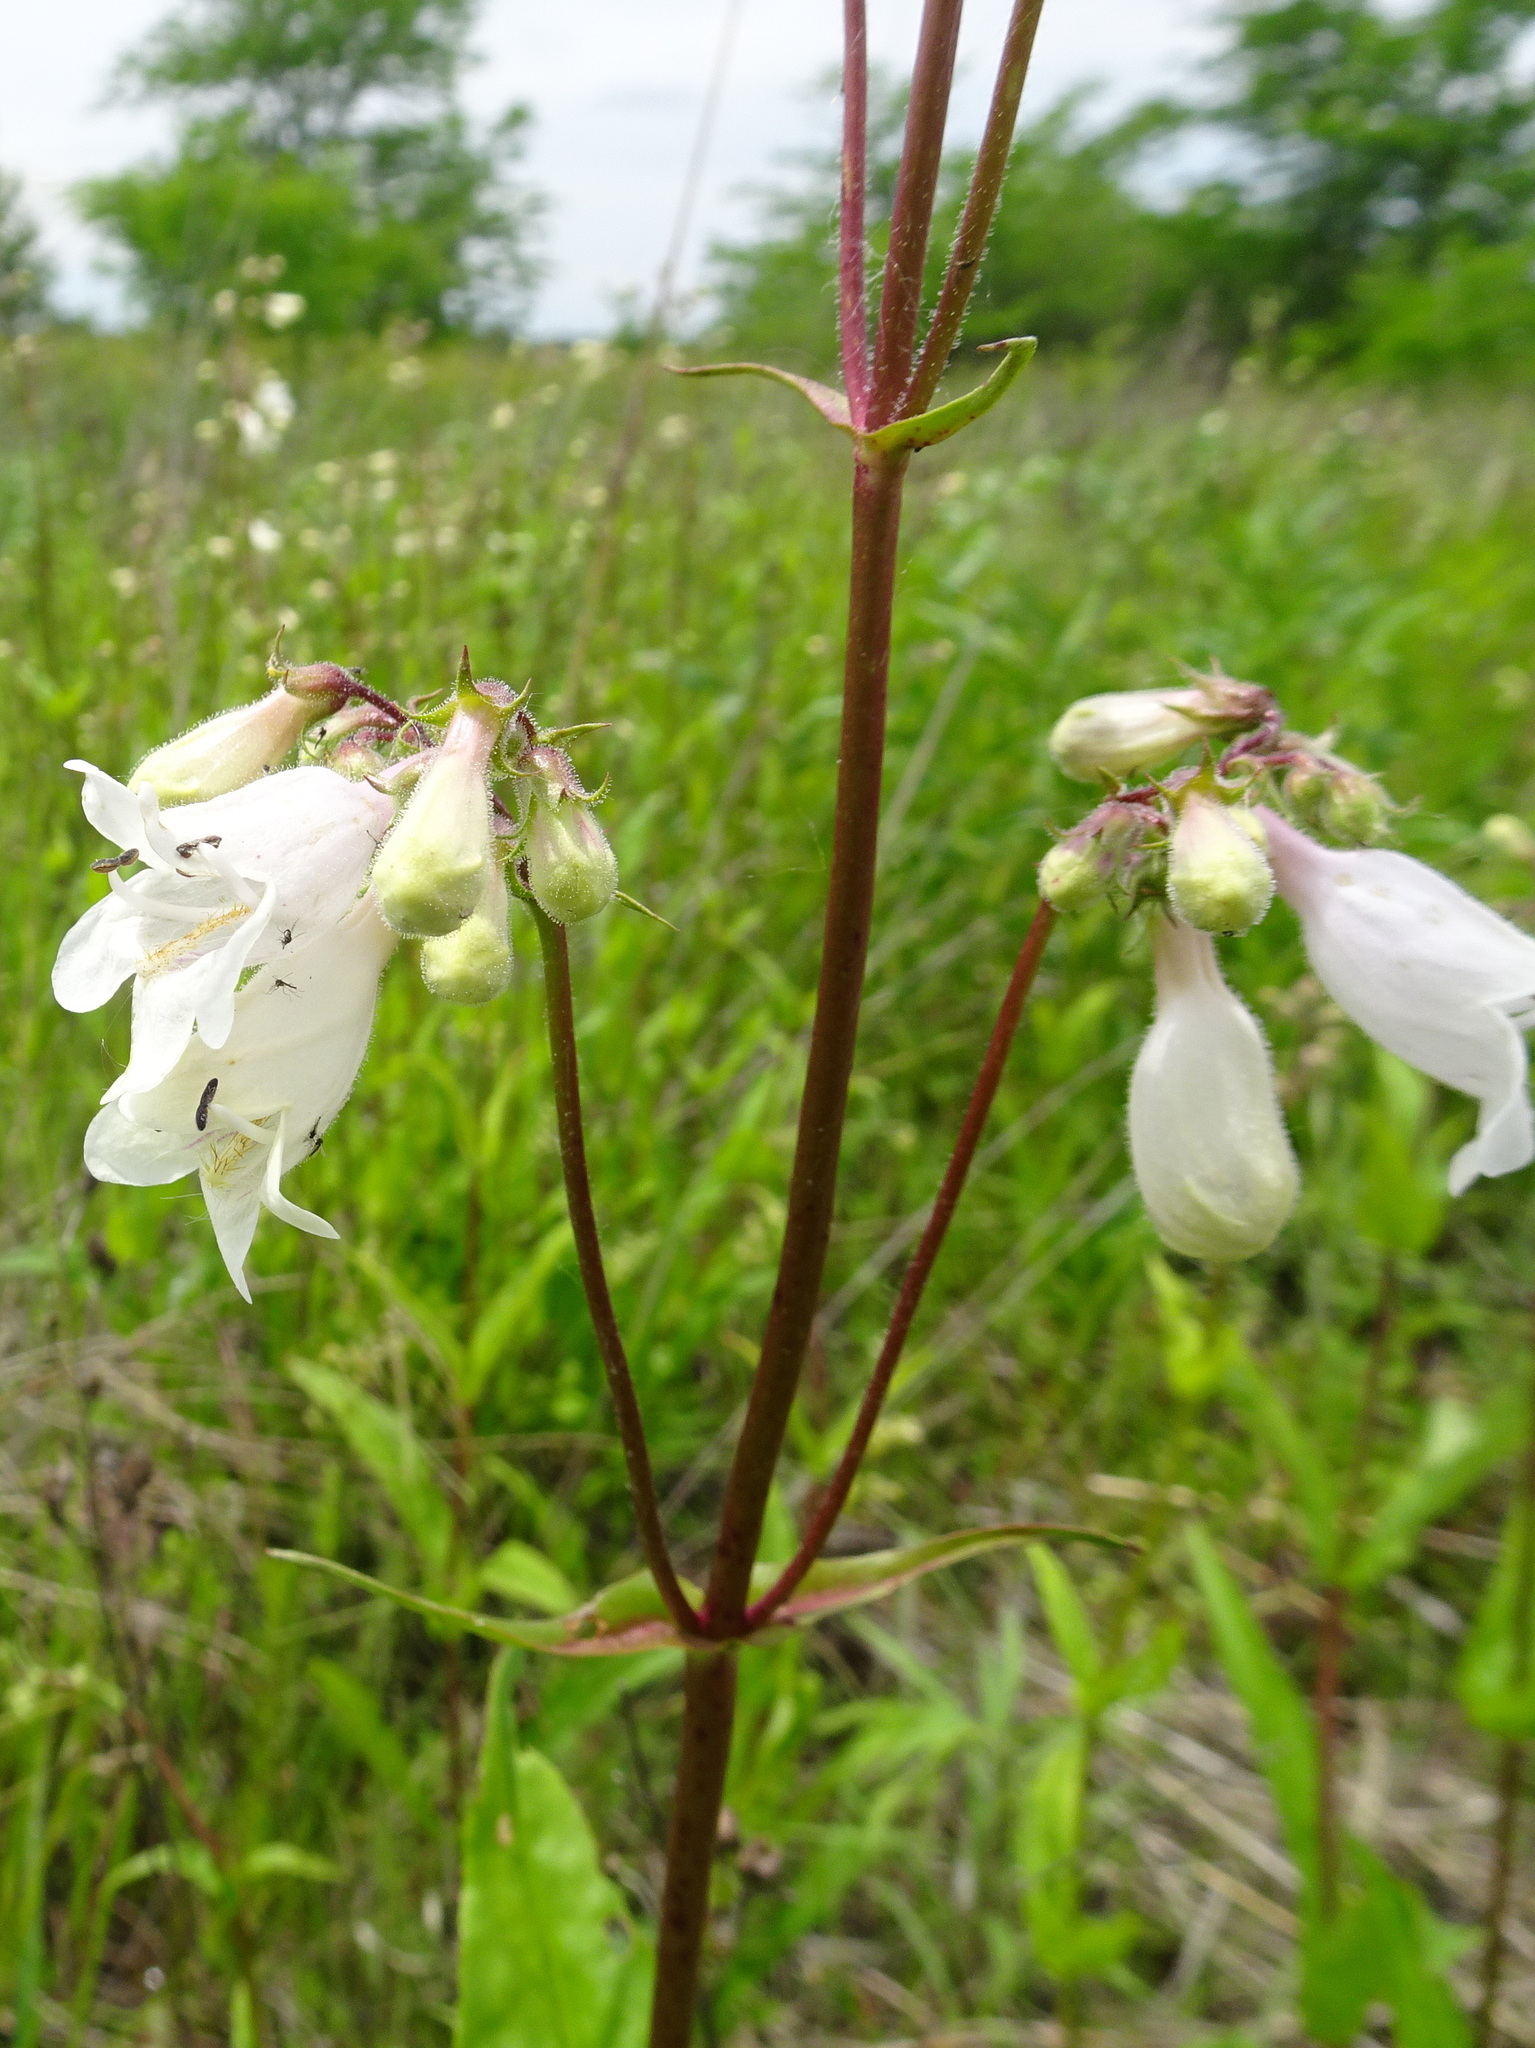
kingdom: Plantae
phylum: Tracheophyta
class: Magnoliopsida
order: Lamiales
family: Plantaginaceae
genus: Penstemon
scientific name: Penstemon digitalis
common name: Foxglove beardtongue
